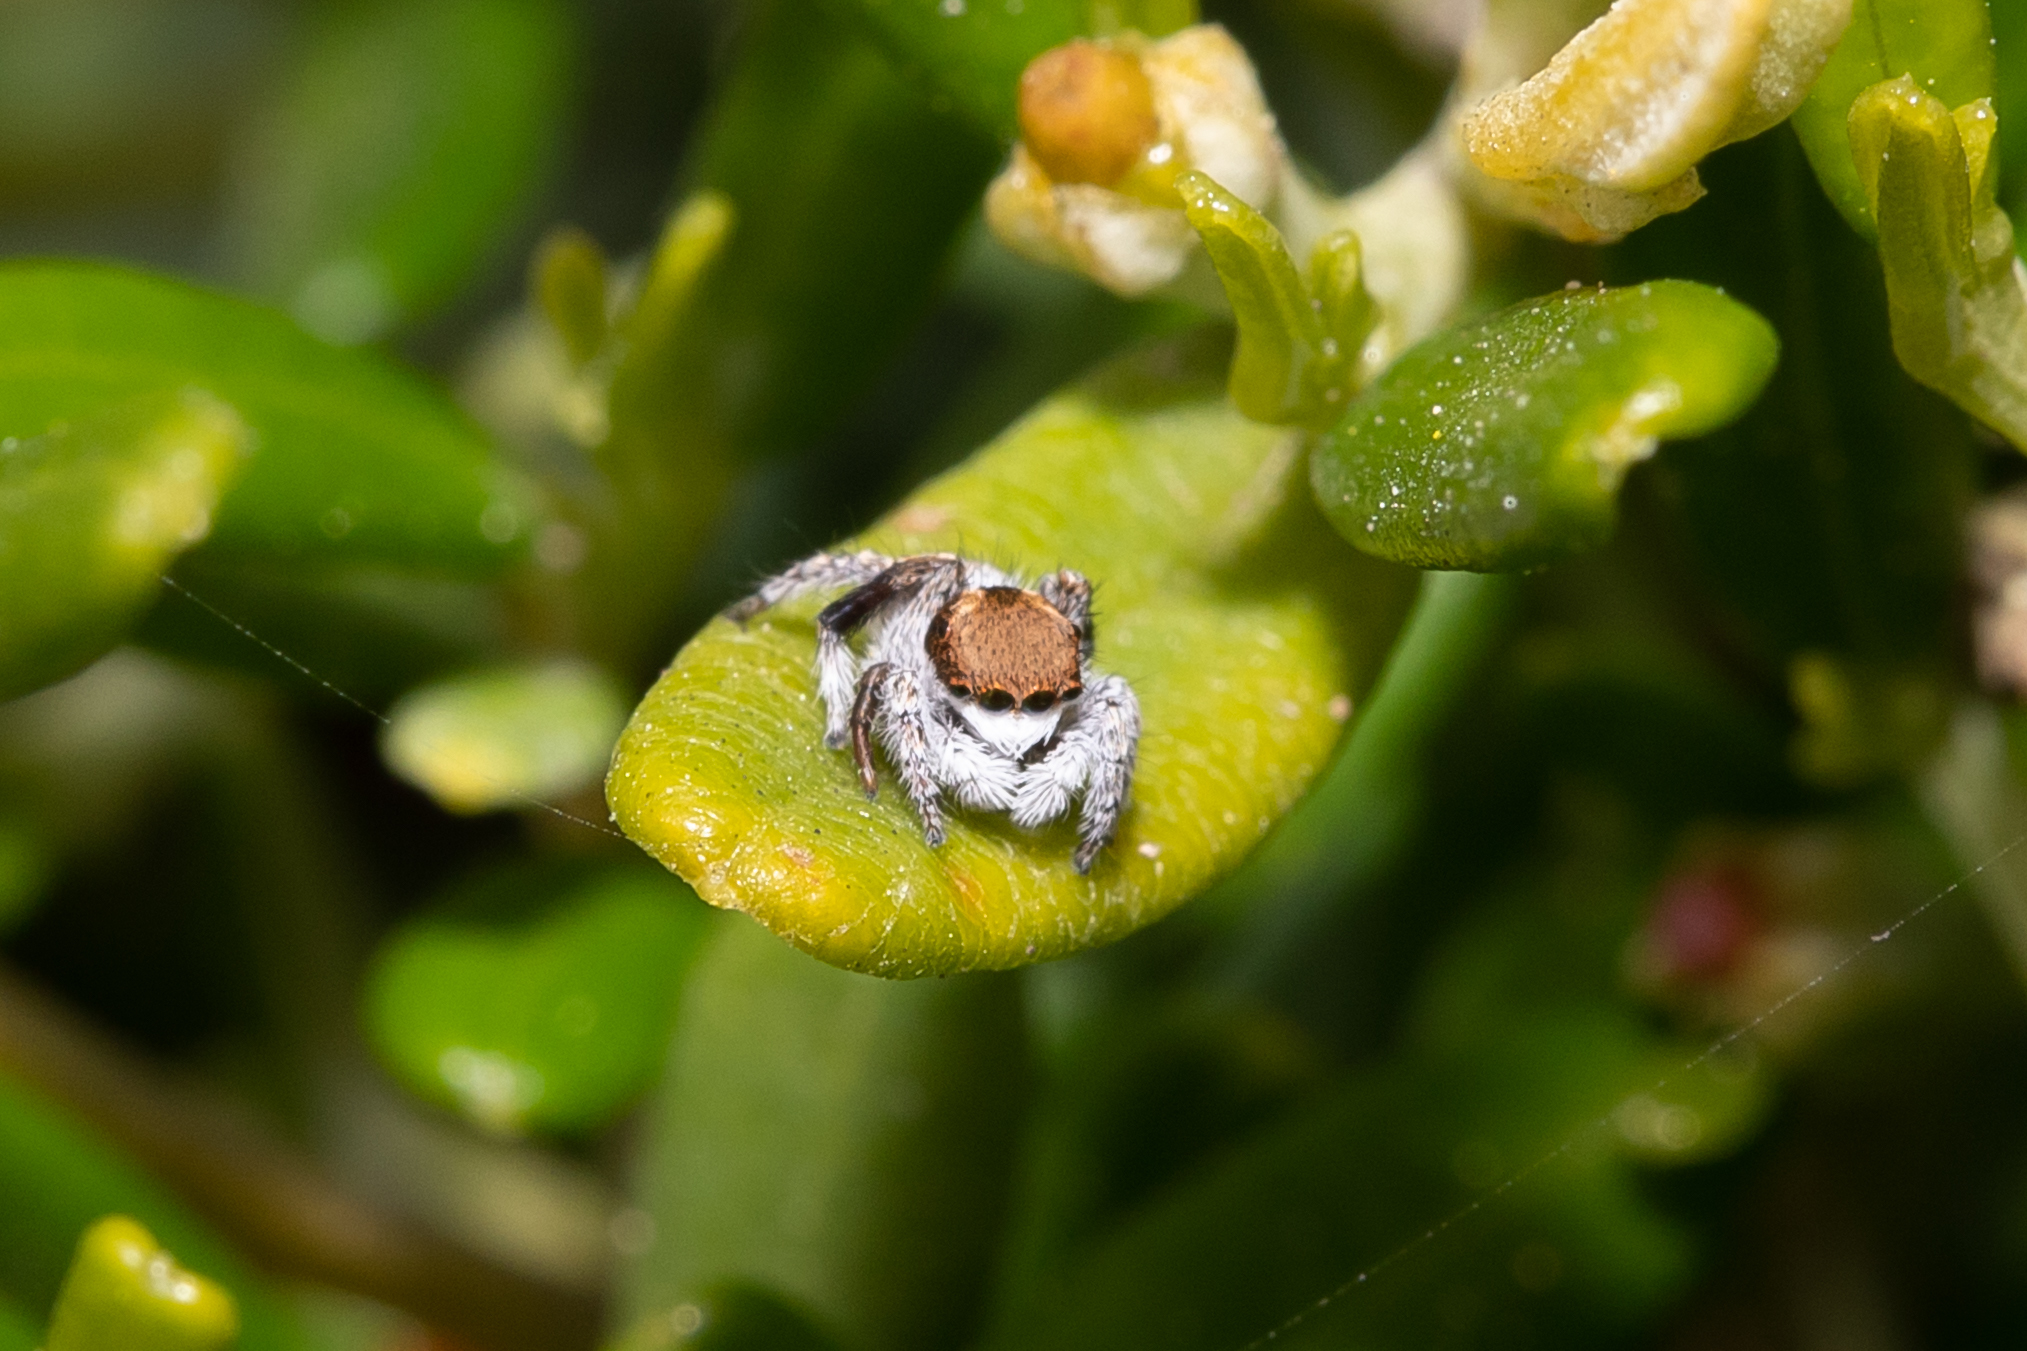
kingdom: Animalia
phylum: Arthropoda
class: Arachnida
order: Araneae
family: Salticidae
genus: Maratus
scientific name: Maratus albus
